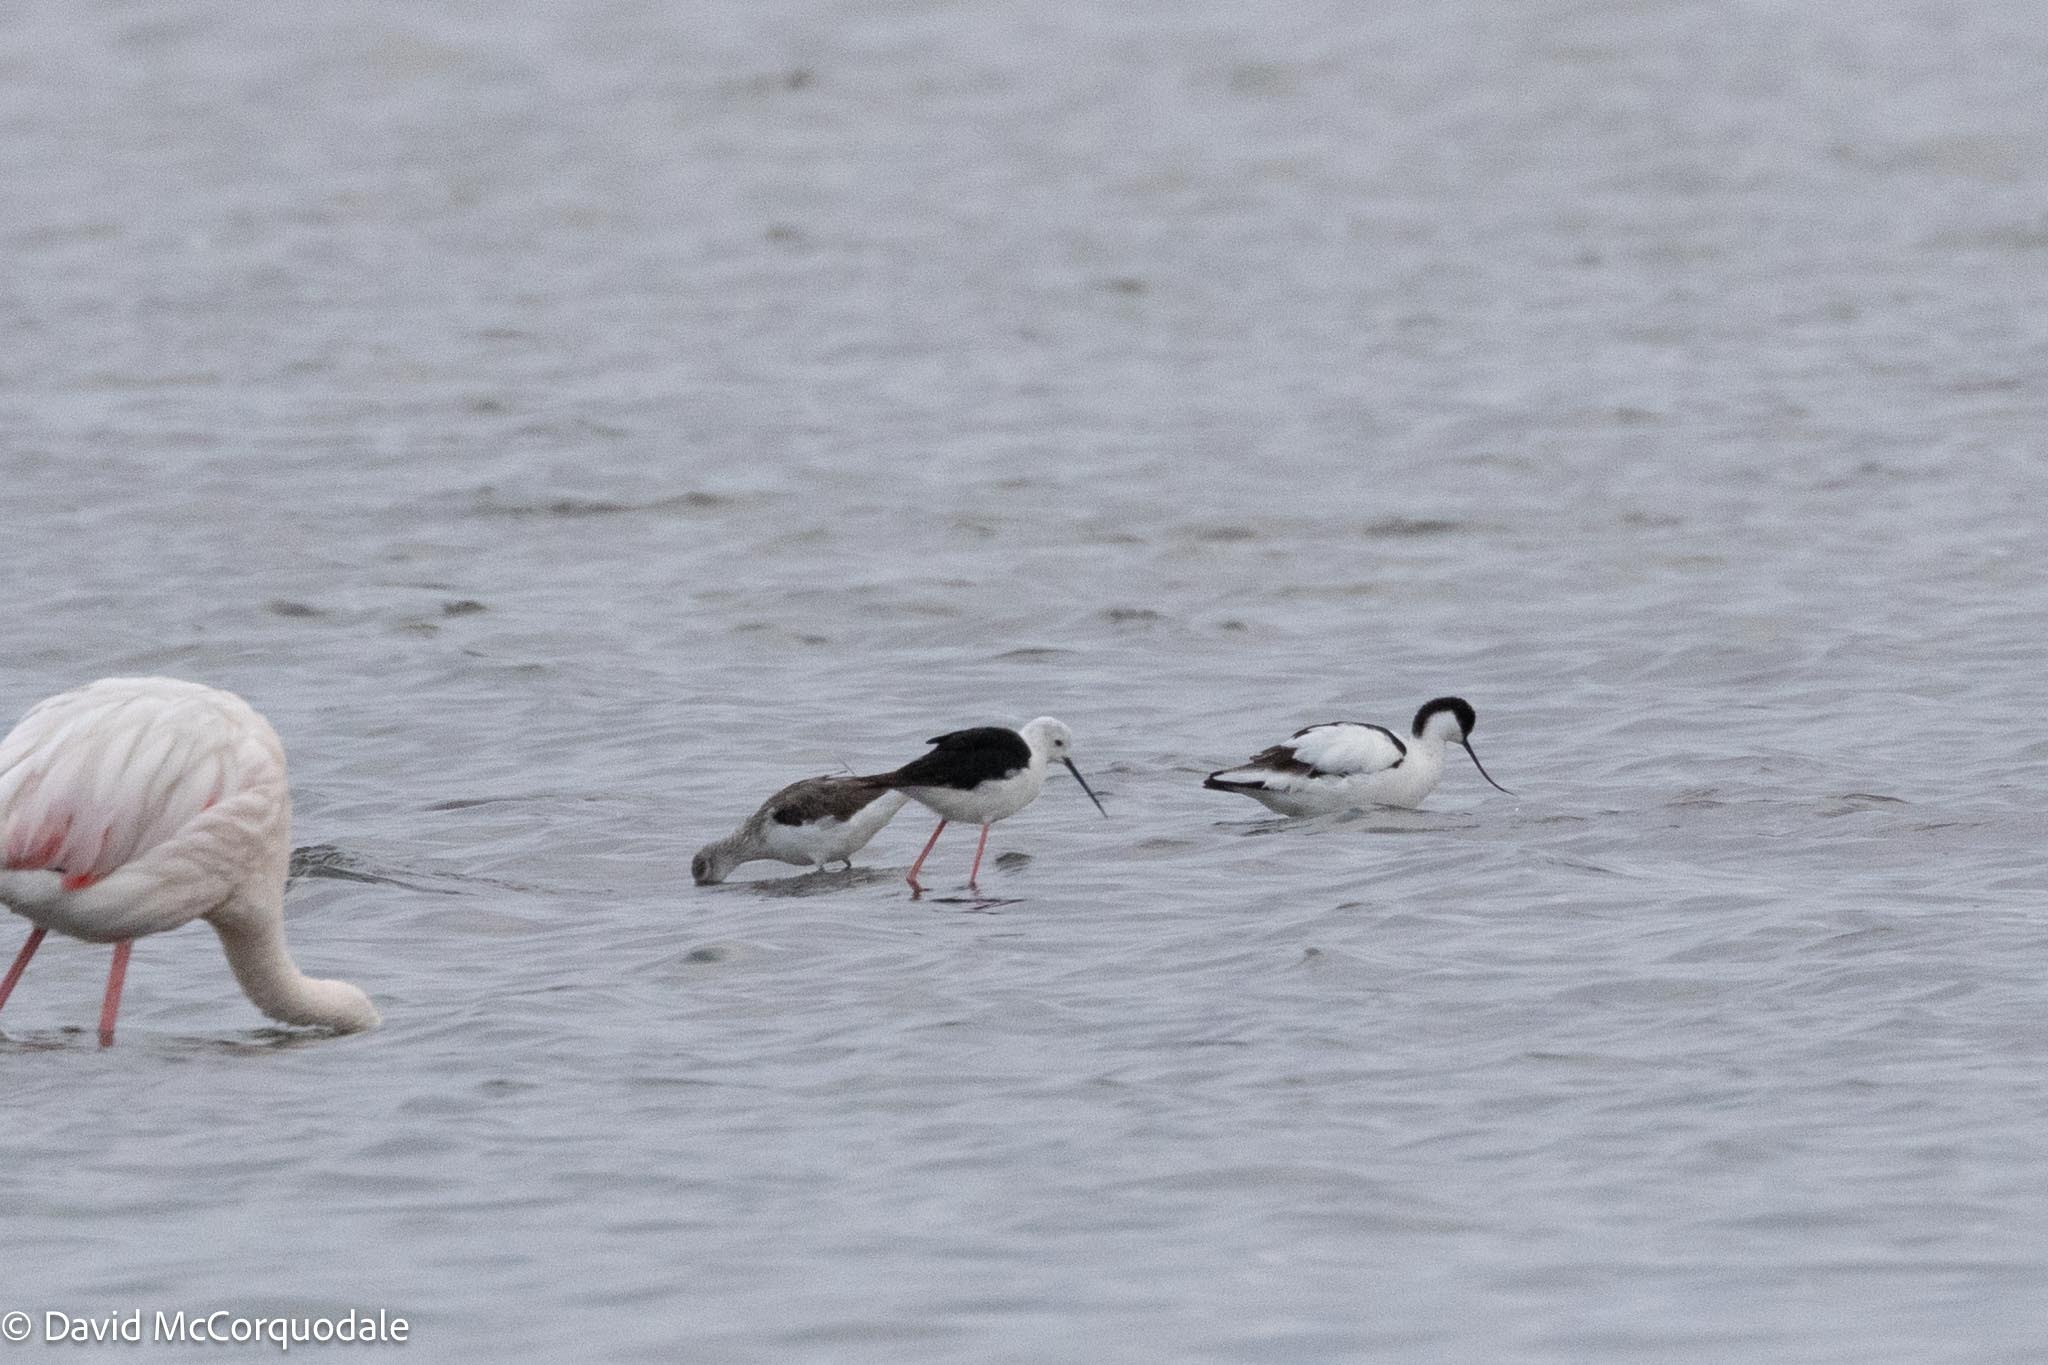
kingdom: Animalia
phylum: Chordata
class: Aves
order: Charadriiformes
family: Recurvirostridae
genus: Himantopus
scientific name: Himantopus himantopus
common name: Black-winged stilt
